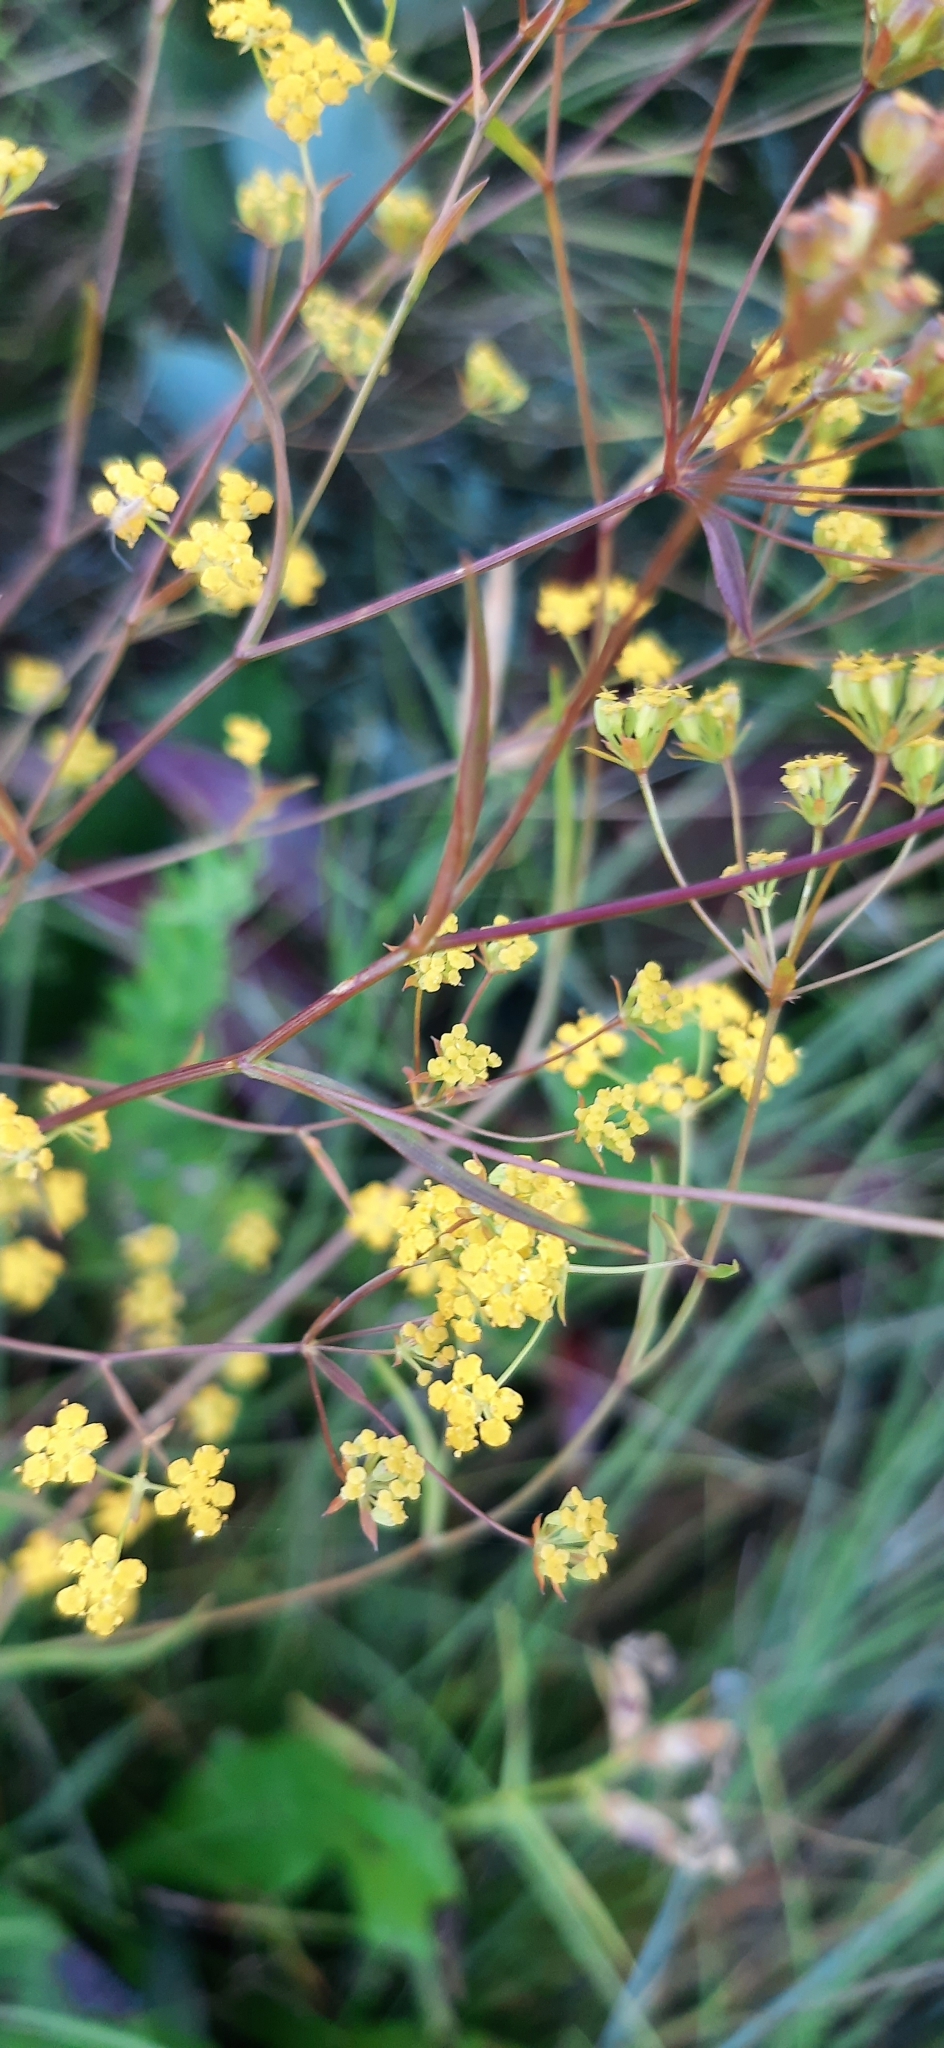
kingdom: Plantae
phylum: Tracheophyta
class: Magnoliopsida
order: Apiales
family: Apiaceae
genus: Bupleurum
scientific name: Bupleurum exaltatum
